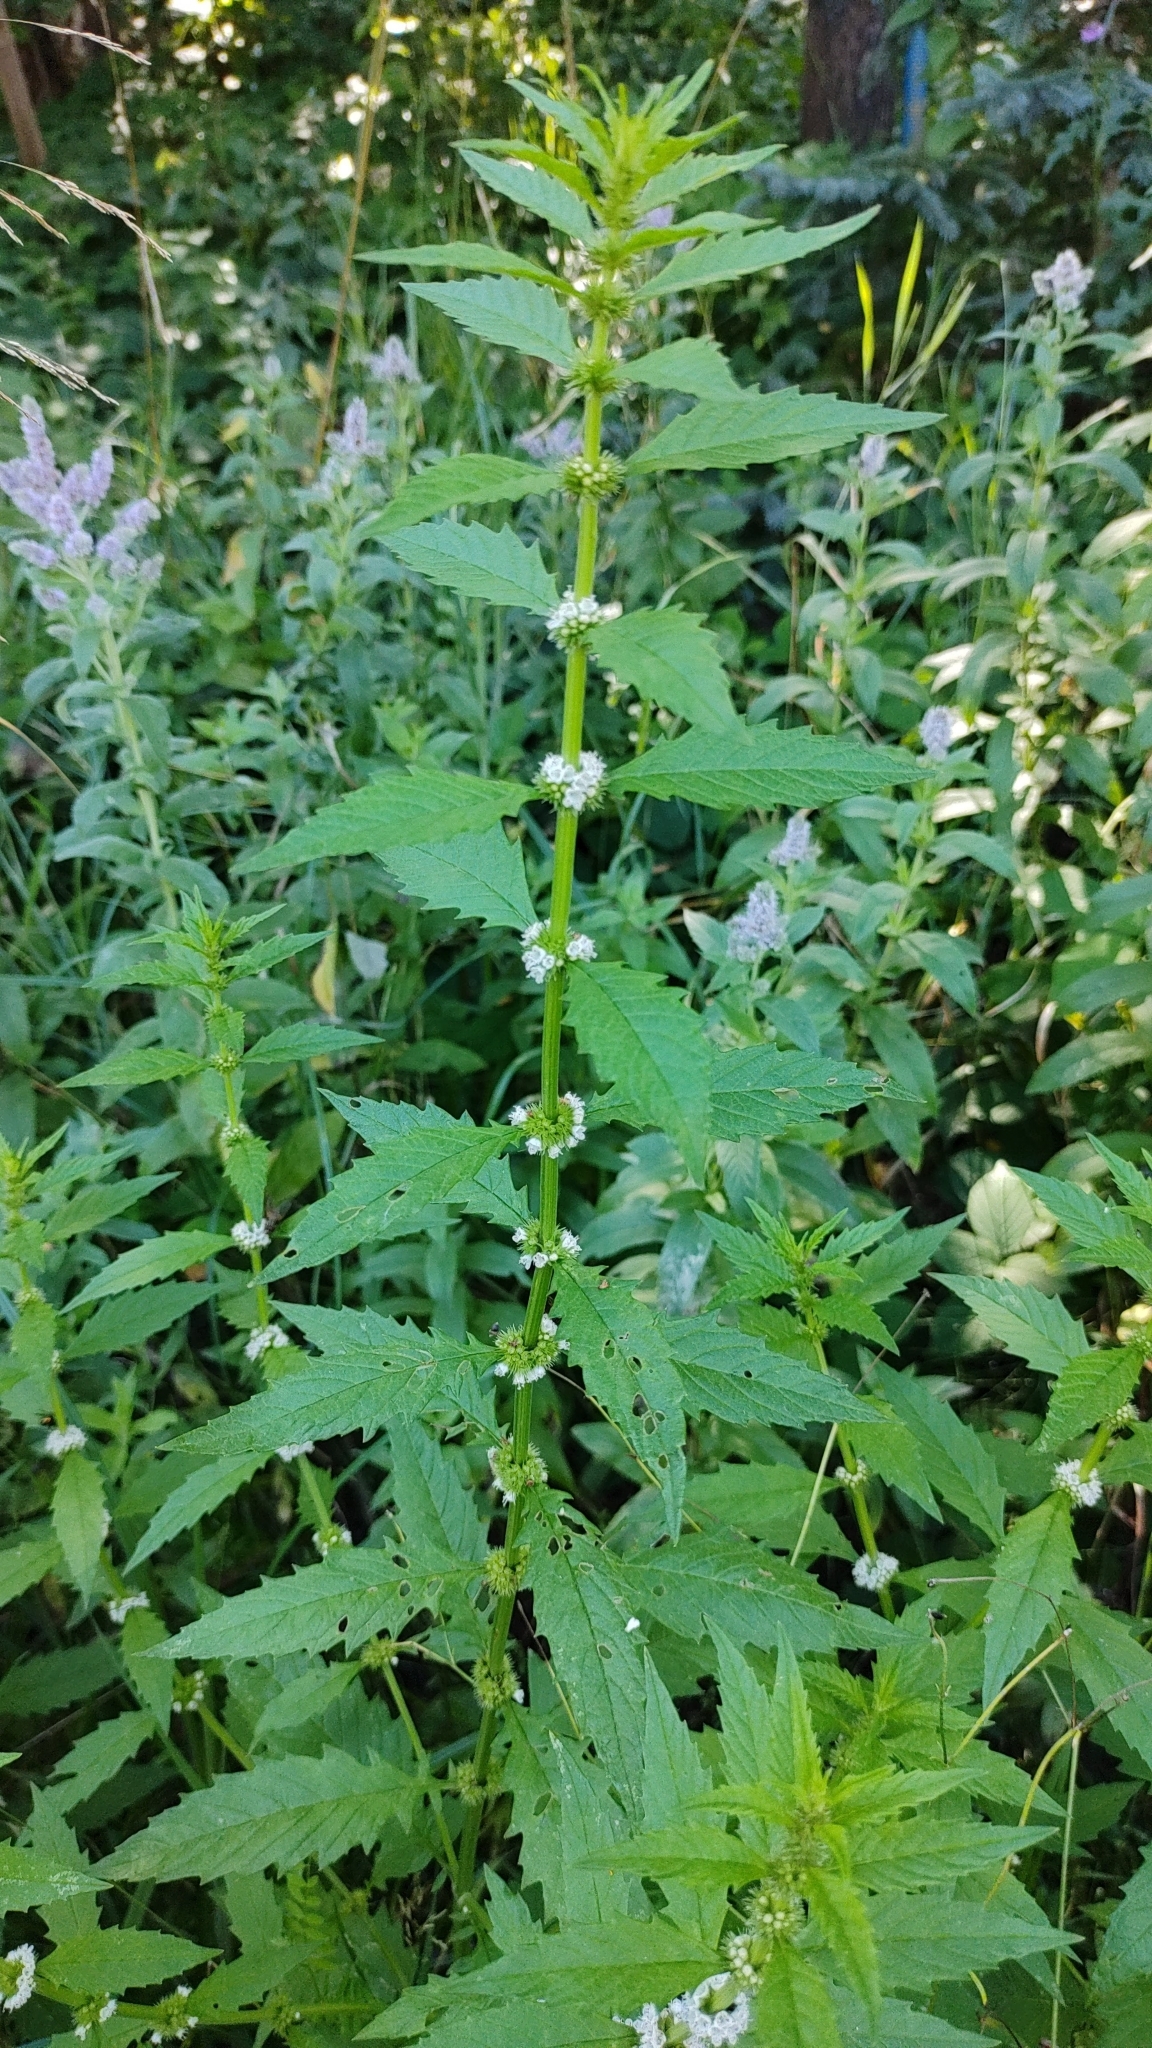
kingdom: Plantae
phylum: Tracheophyta
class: Magnoliopsida
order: Lamiales
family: Lamiaceae
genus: Lycopus
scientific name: Lycopus europaeus
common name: European bugleweed
